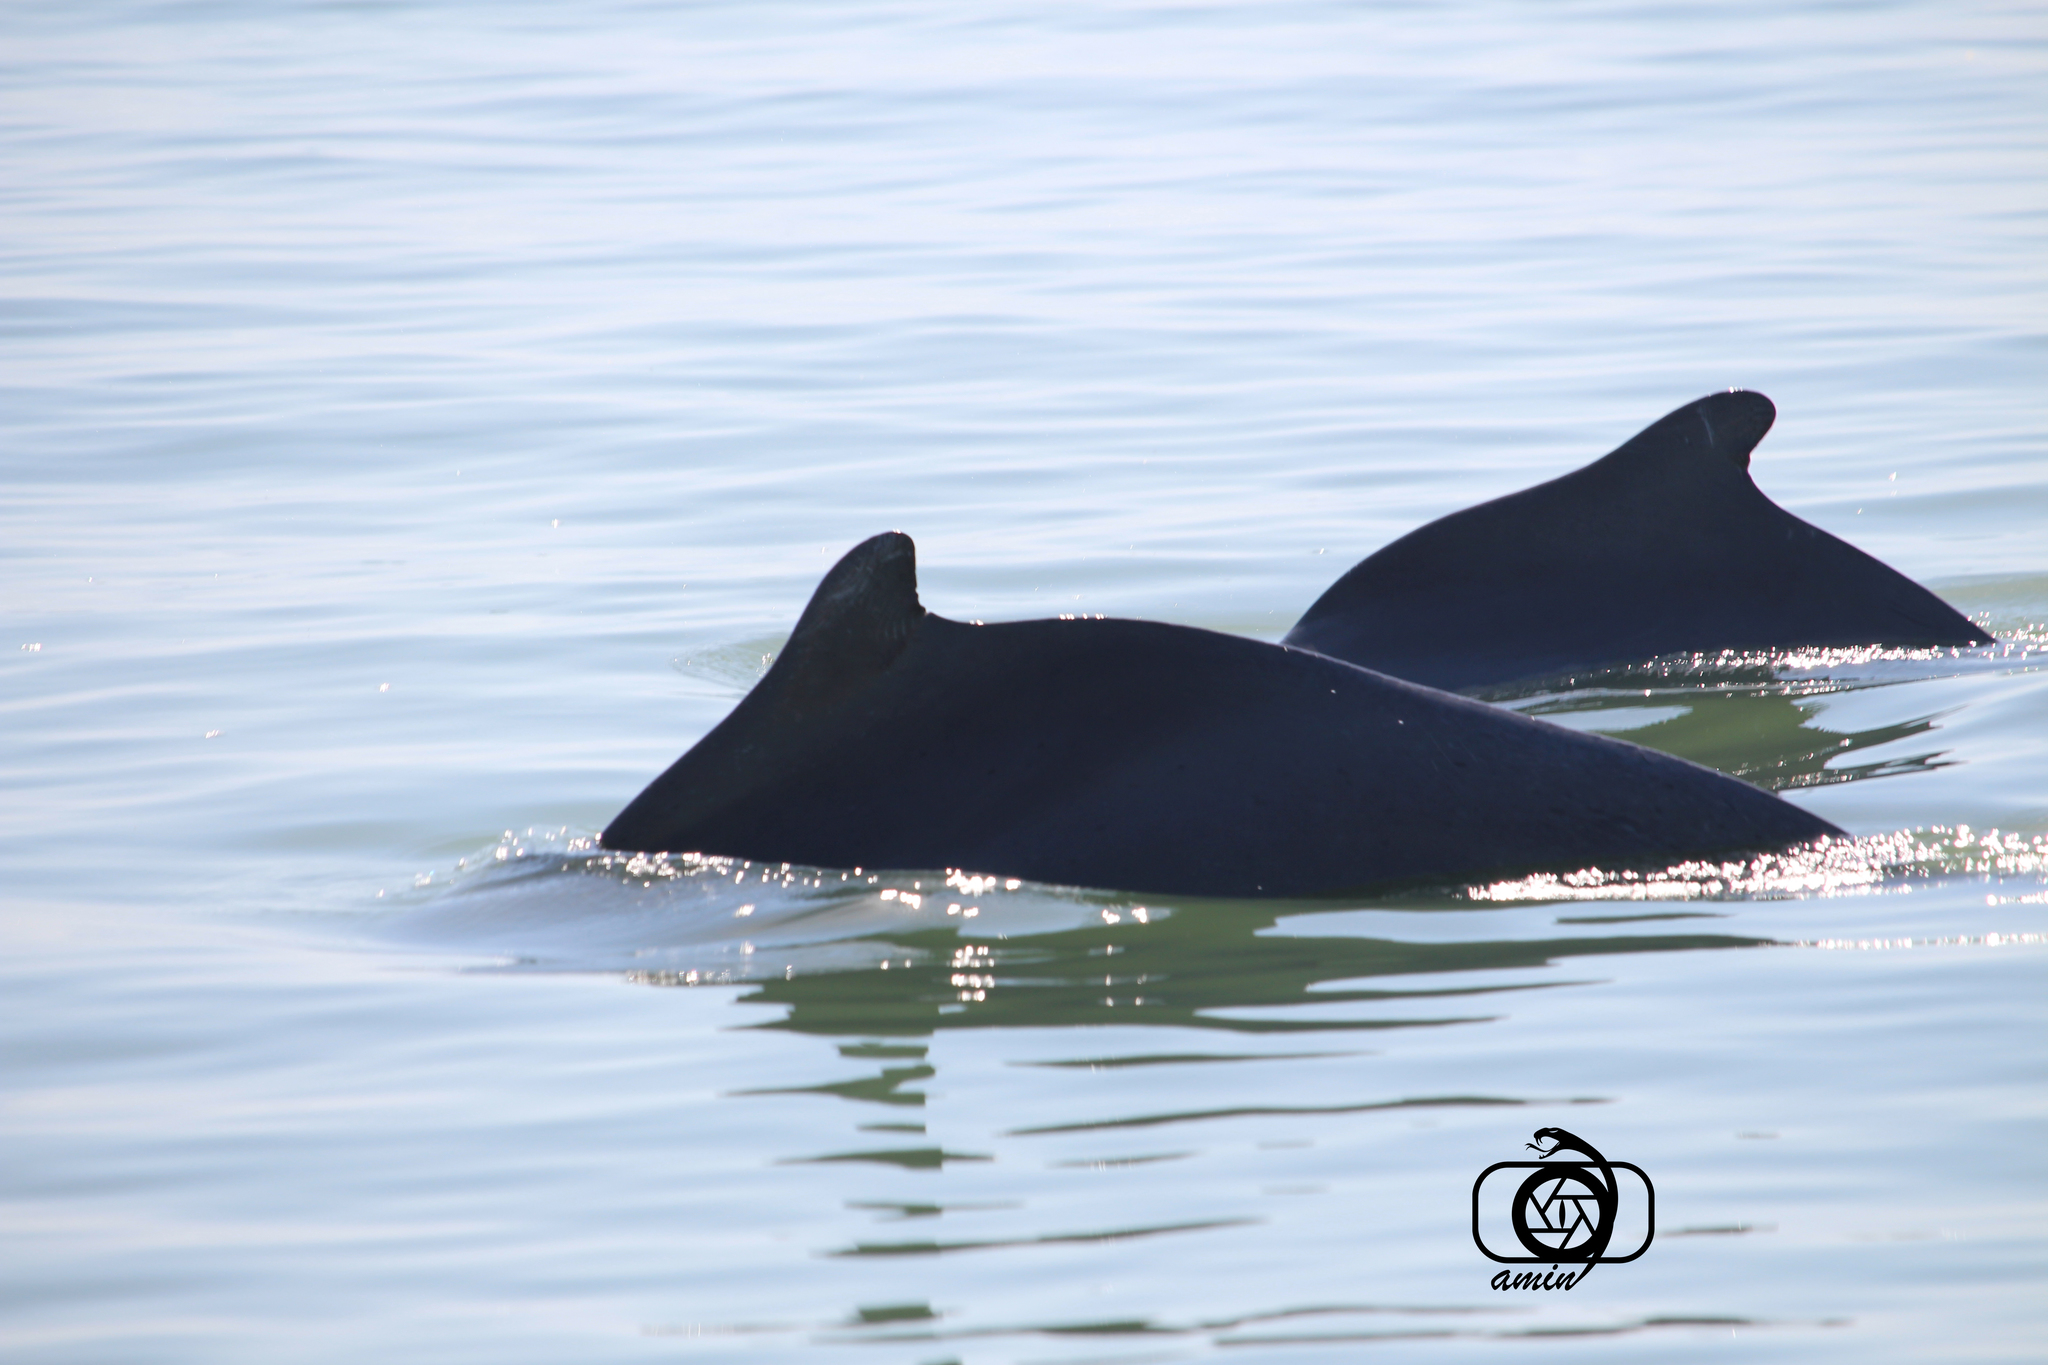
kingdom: Animalia
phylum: Chordata
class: Mammalia
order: Cetacea
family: Delphinidae
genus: Sousa
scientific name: Sousa plumbea
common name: Indian ocean humpback dolphin
